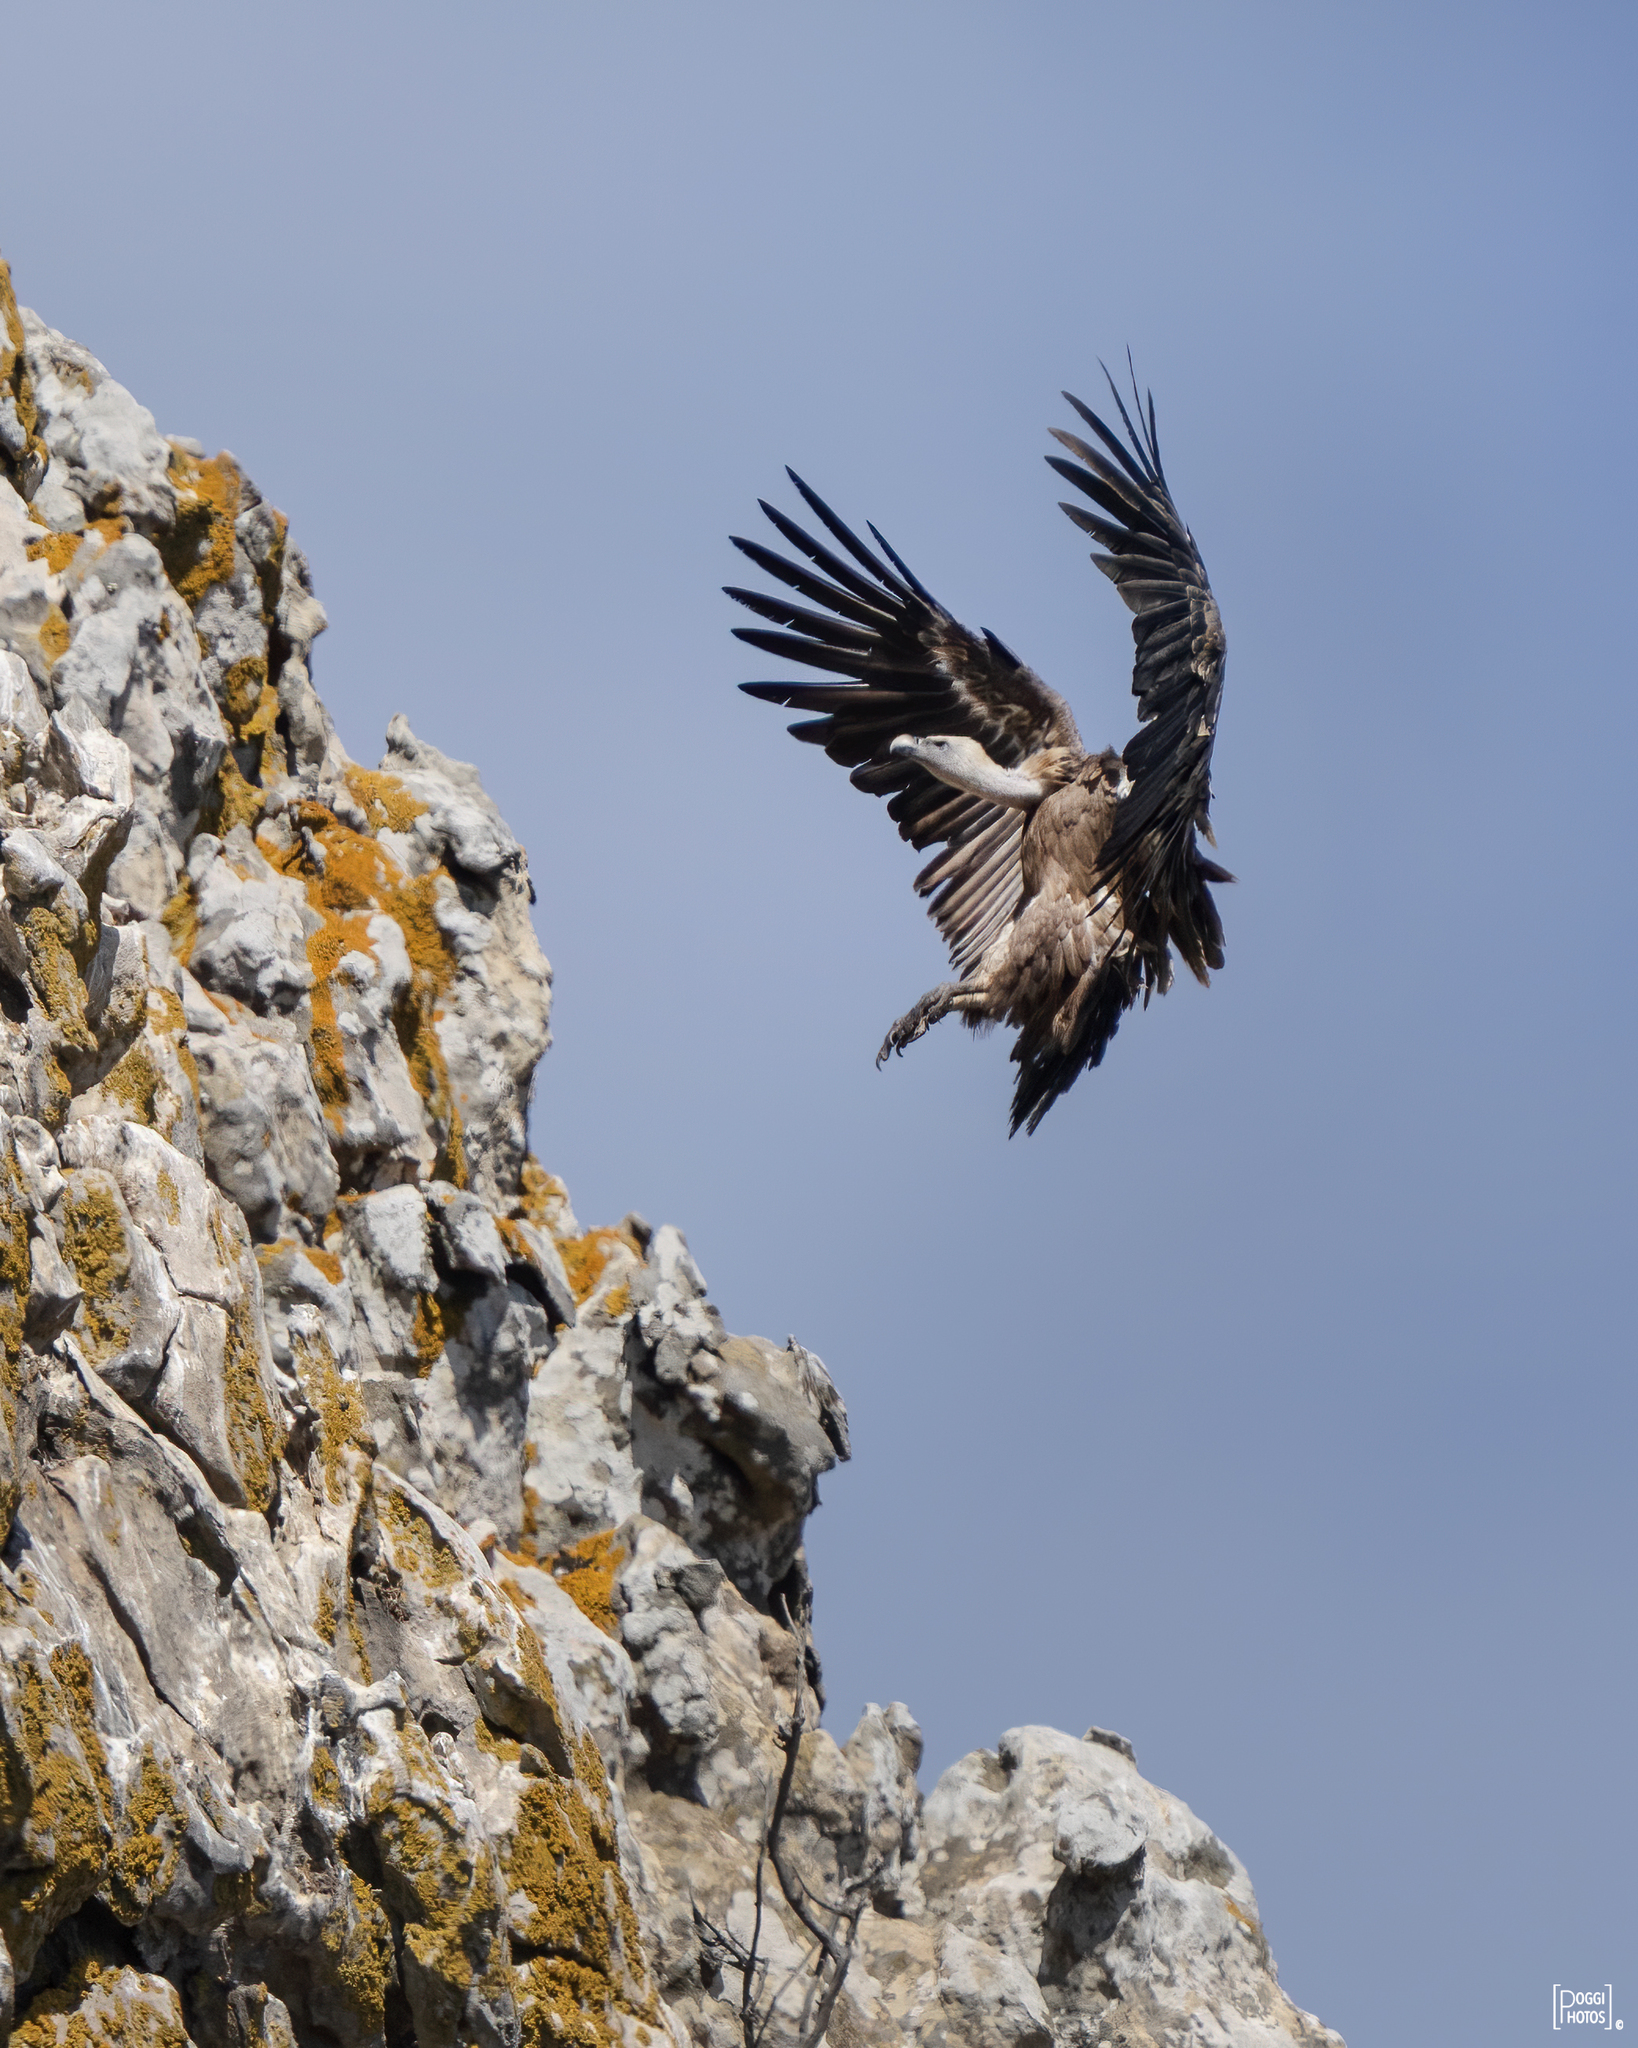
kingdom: Animalia
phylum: Chordata
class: Aves
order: Accipitriformes
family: Accipitridae
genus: Gyps
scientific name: Gyps fulvus
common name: Griffon vulture
